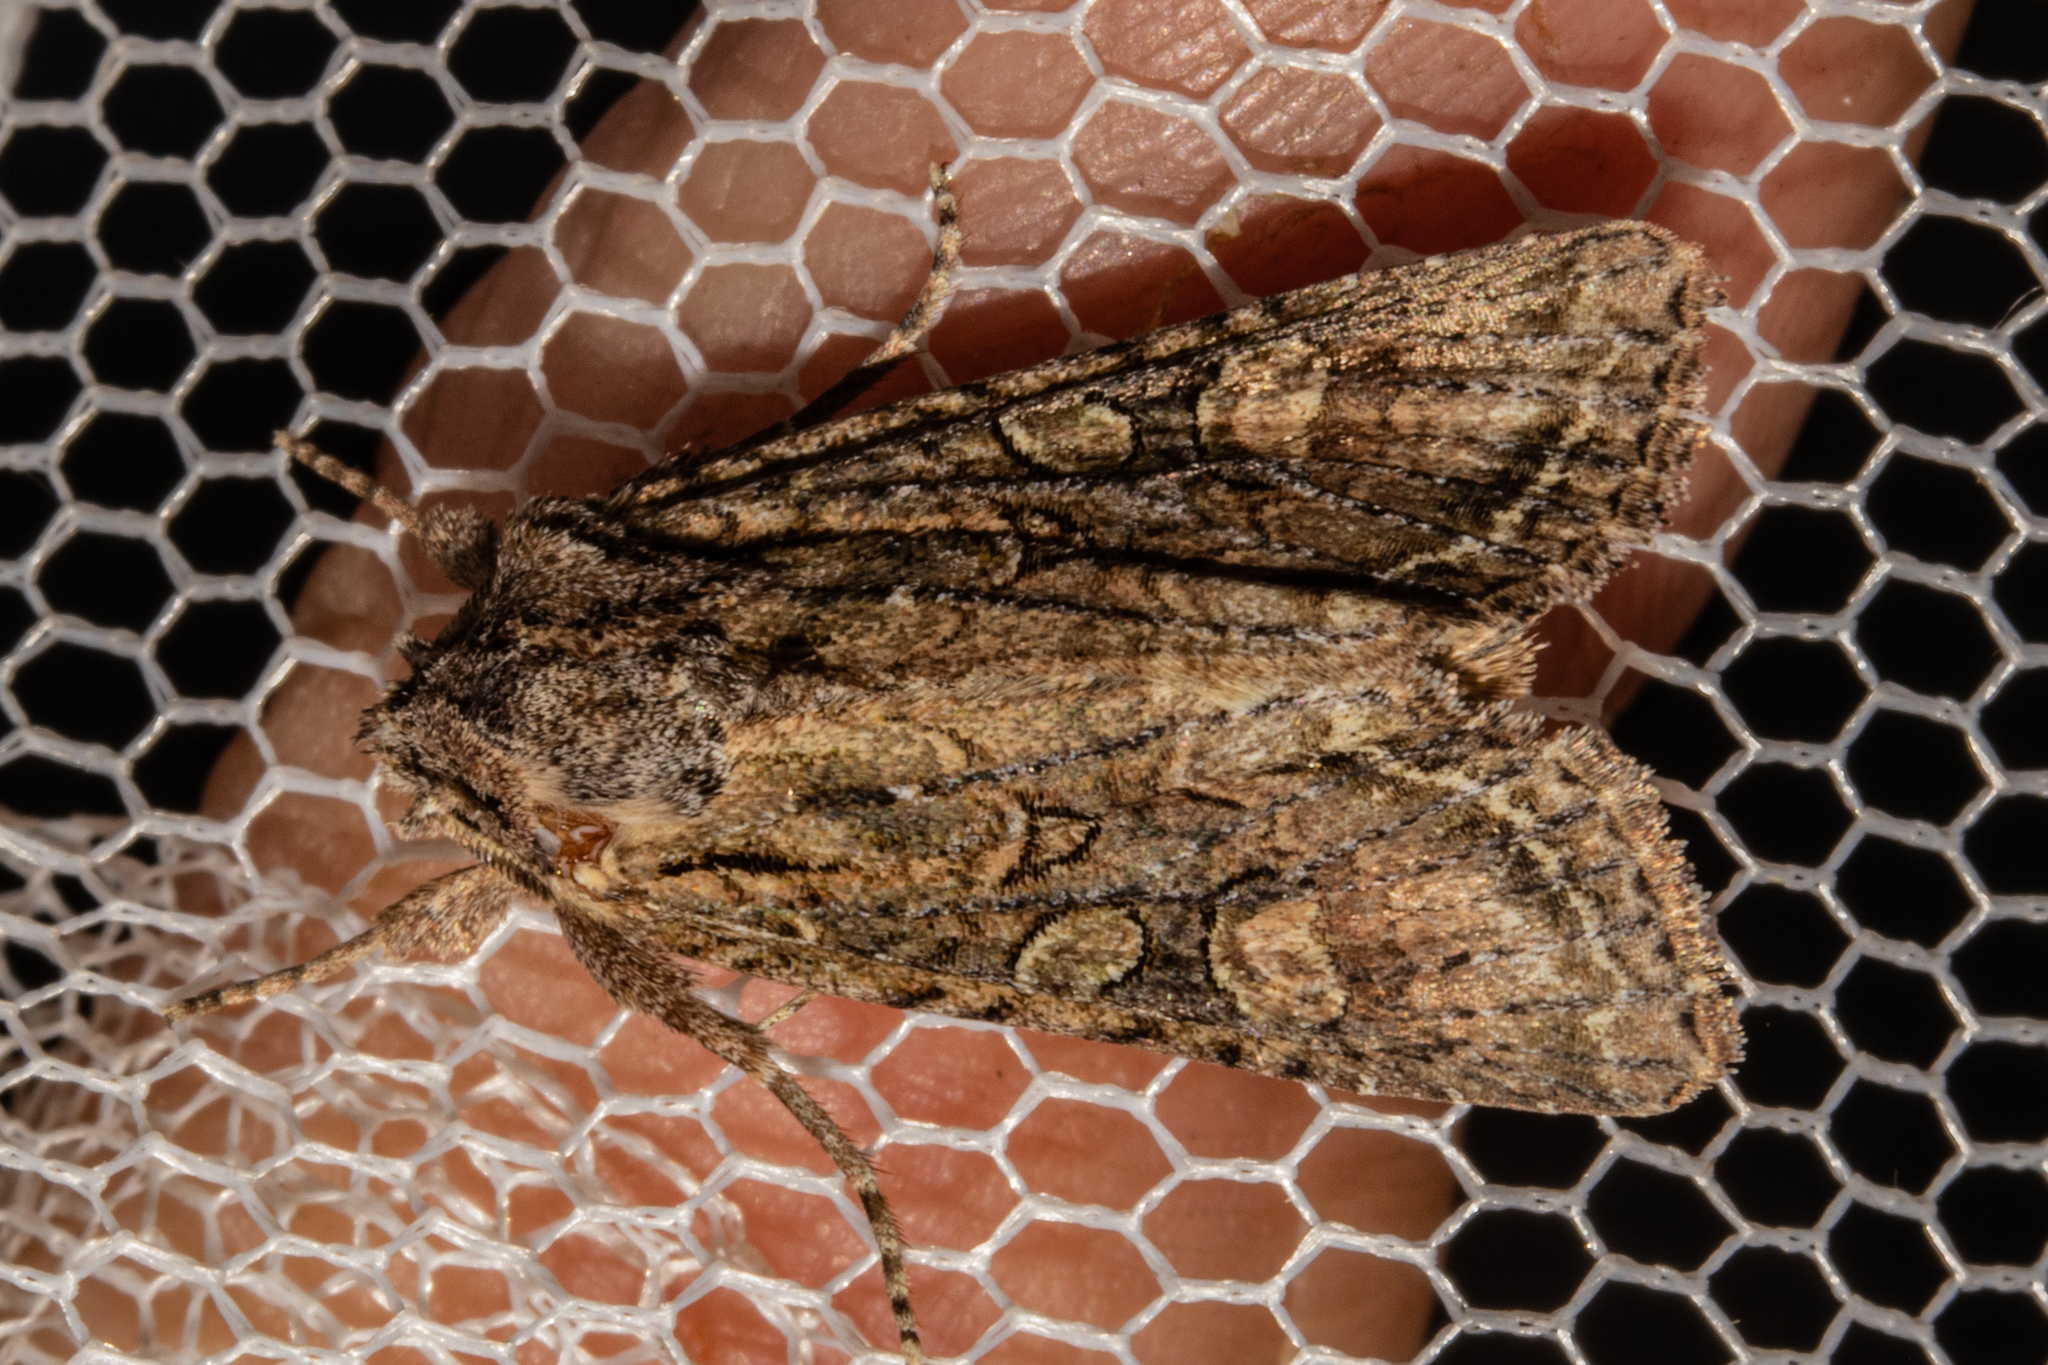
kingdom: Animalia
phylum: Arthropoda
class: Insecta
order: Lepidoptera
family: Noctuidae
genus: Ichneutica
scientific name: Ichneutica mutans
